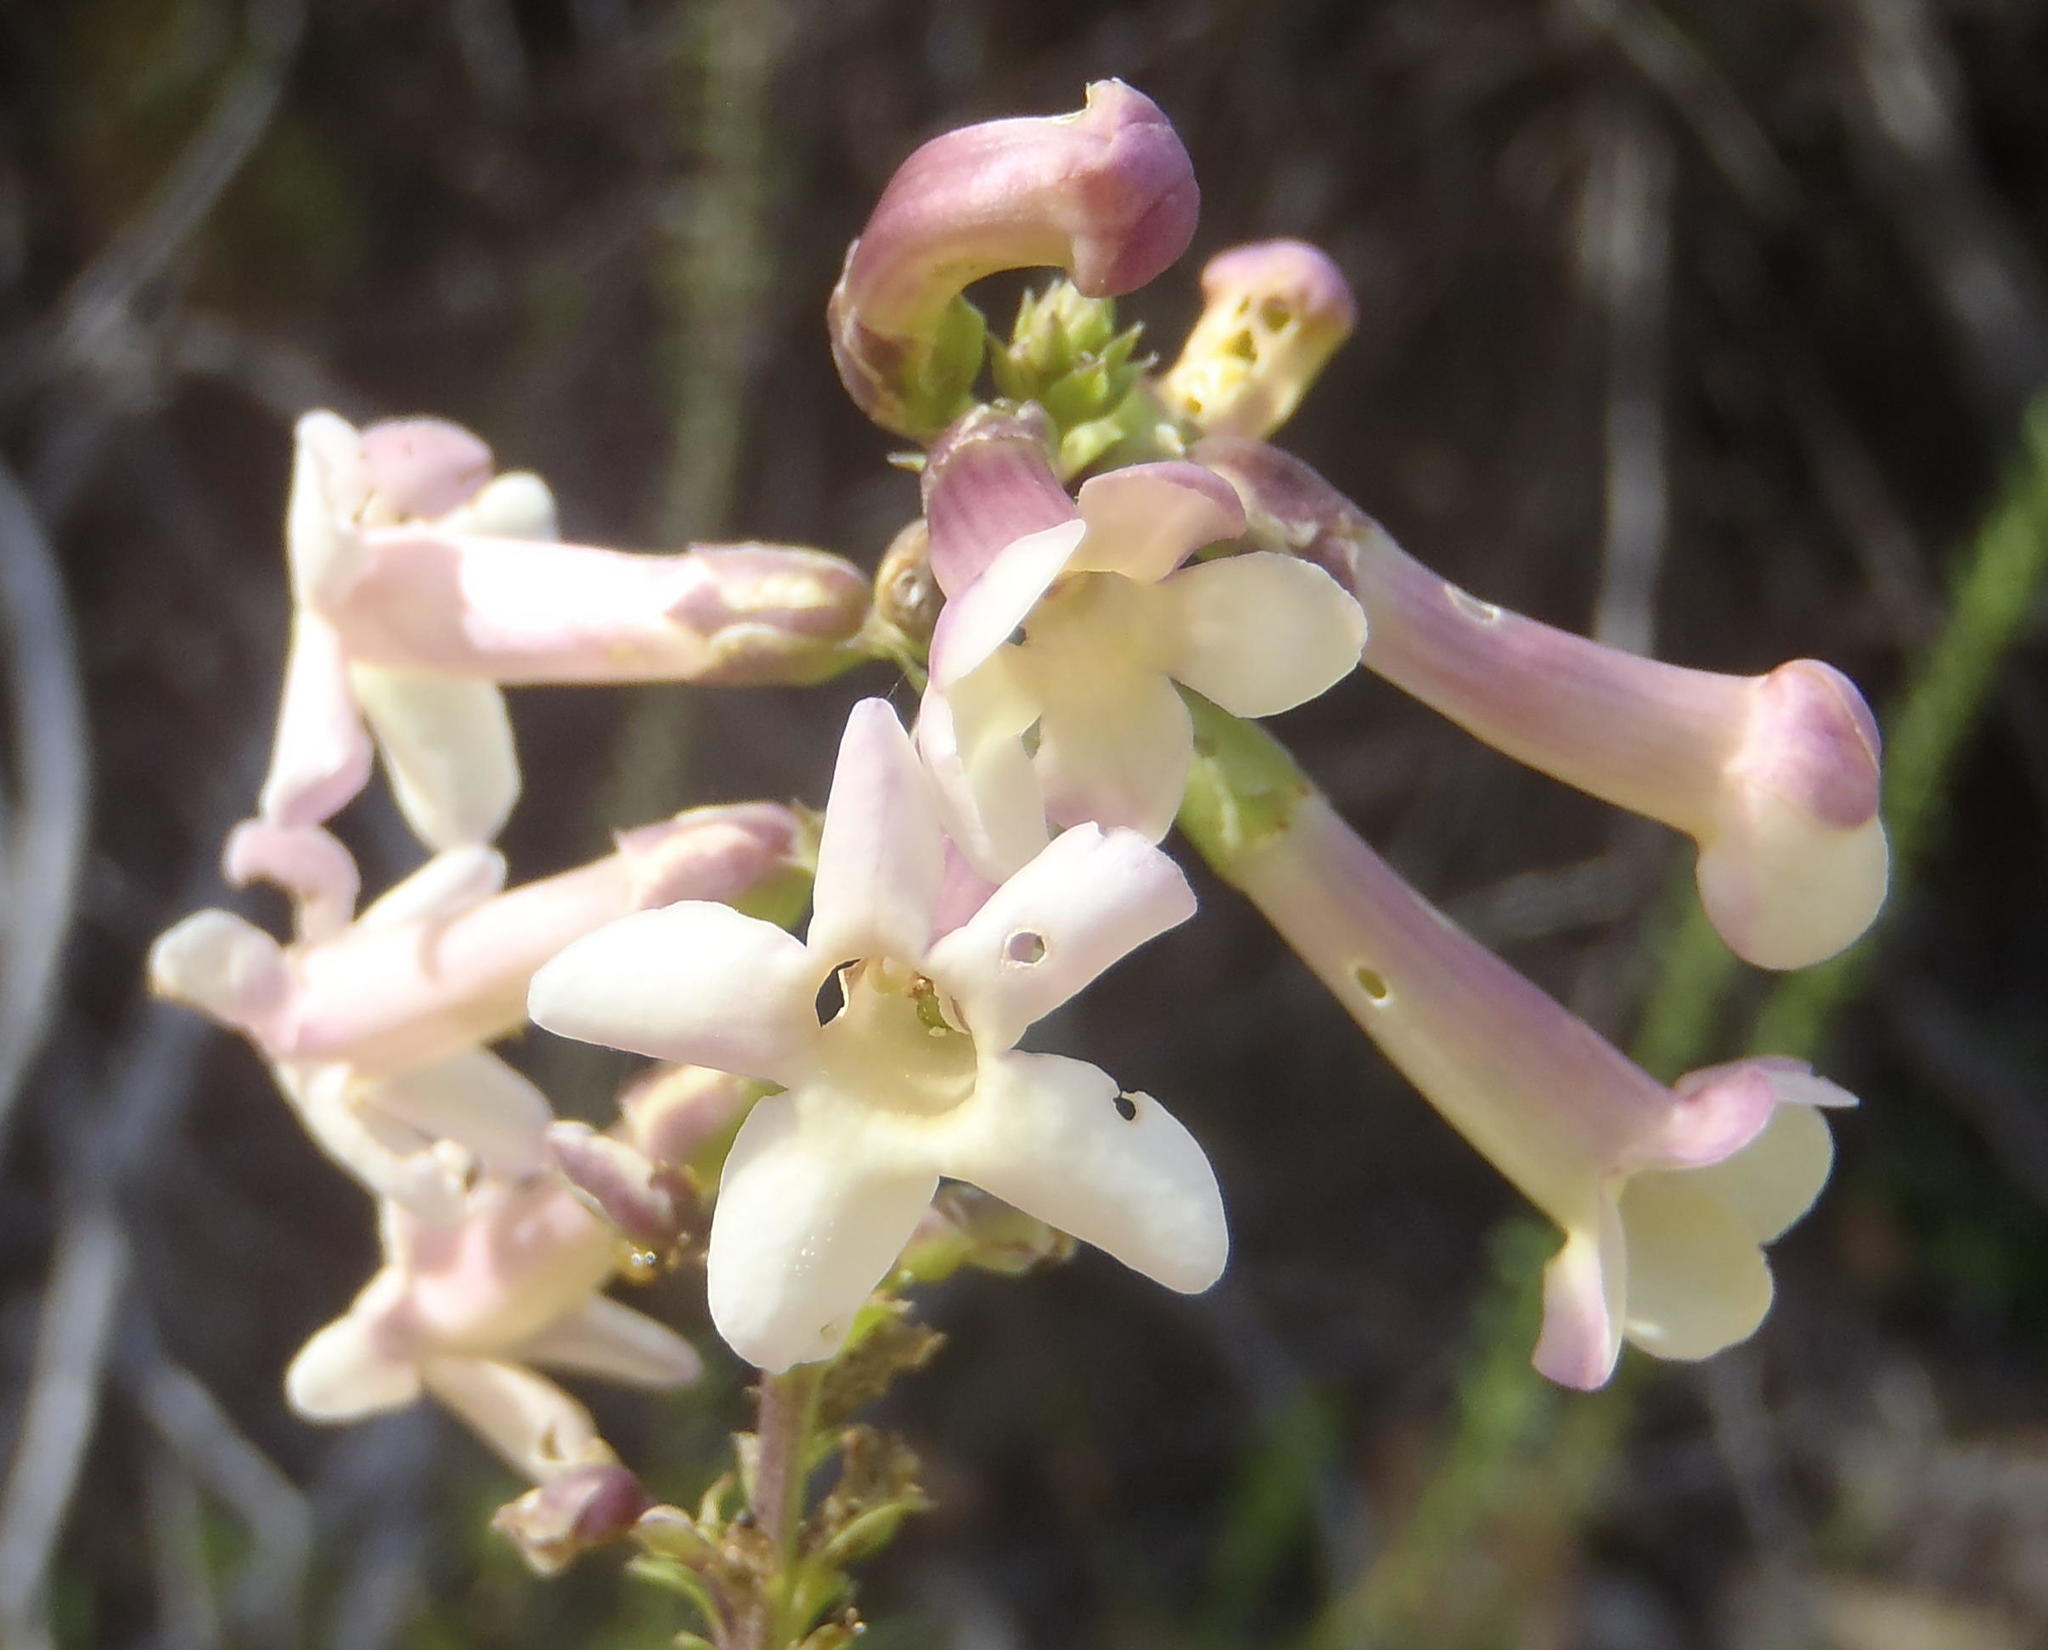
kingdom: Plantae
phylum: Tracheophyta
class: Magnoliopsida
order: Lamiales
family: Scrophulariaceae
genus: Freylinia
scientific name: Freylinia densiflora
